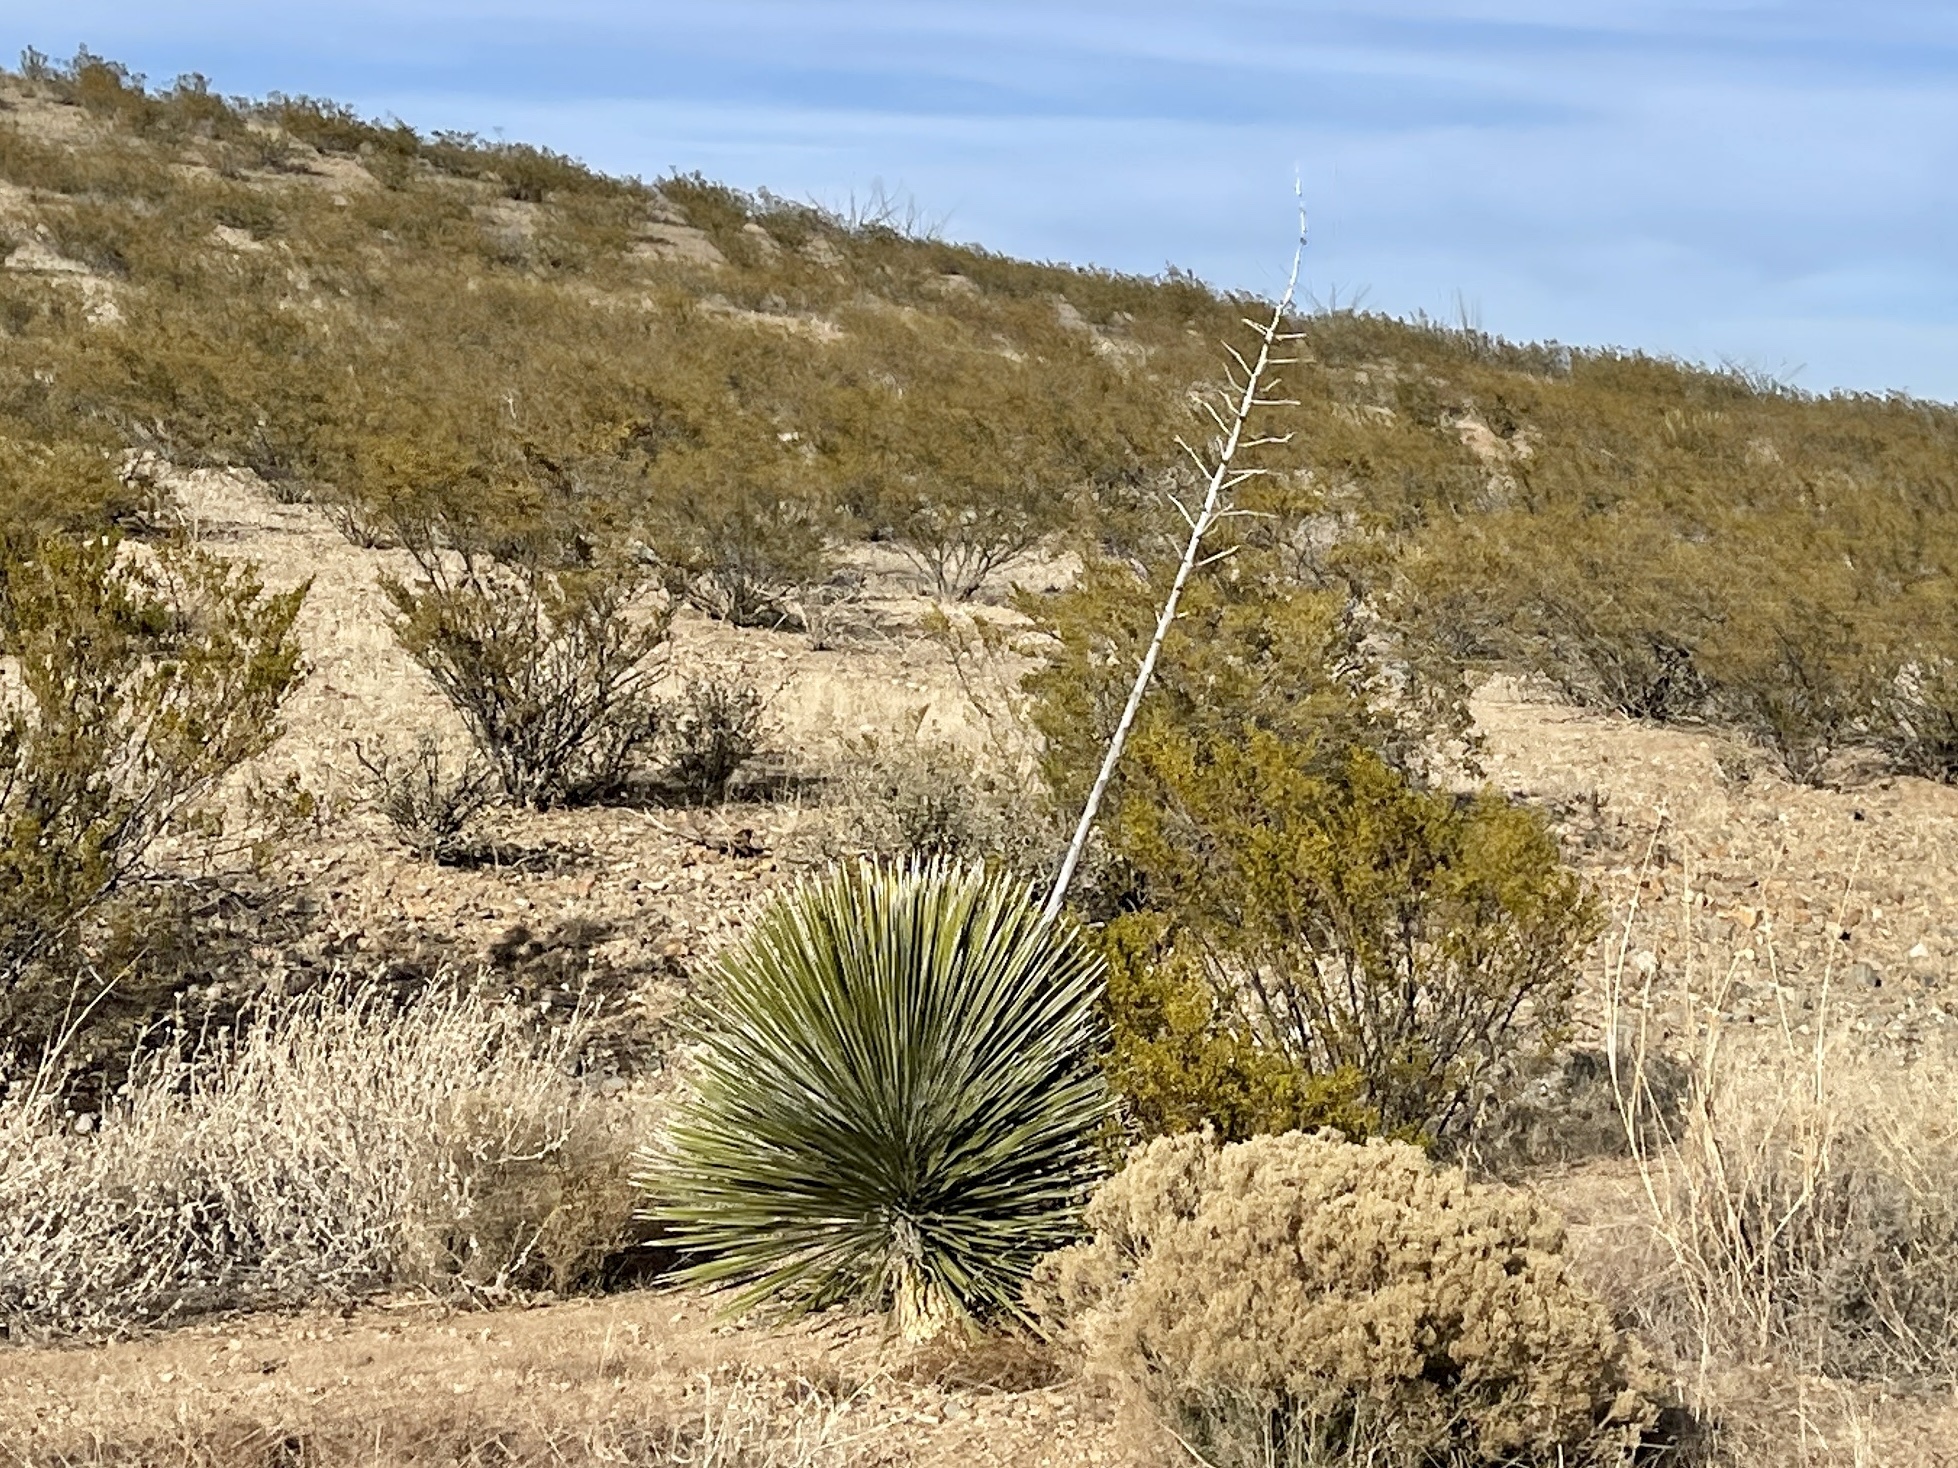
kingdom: Plantae
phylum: Tracheophyta
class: Liliopsida
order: Asparagales
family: Asparagaceae
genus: Yucca
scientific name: Yucca elata
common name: Palmella
